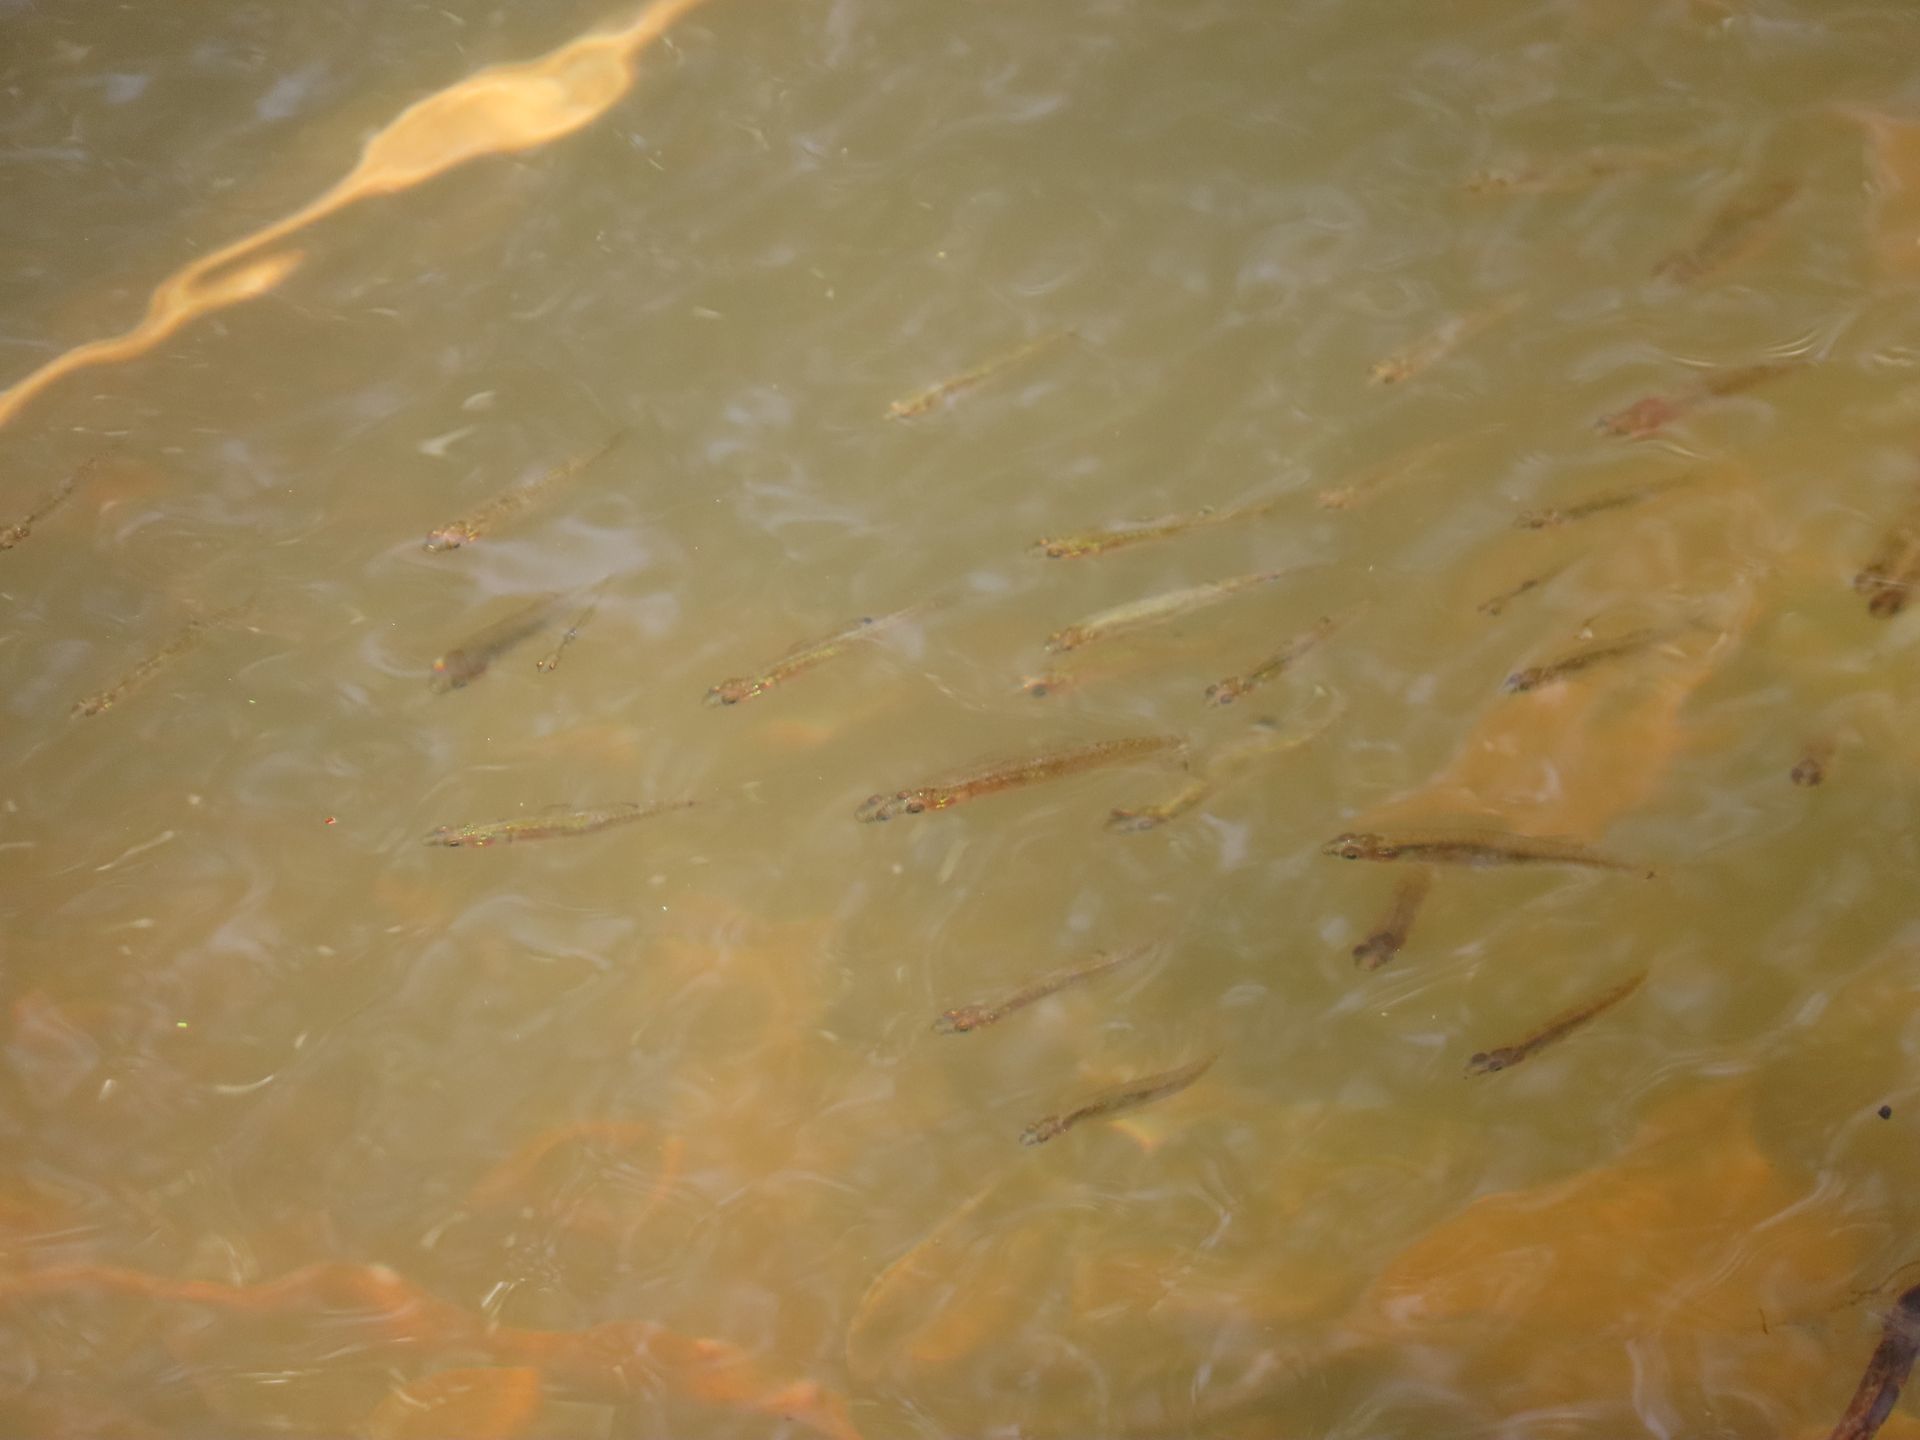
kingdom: Animalia
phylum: Chordata
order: Perciformes
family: Eleotridae
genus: Hypseleotris
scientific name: Hypseleotris compressa
